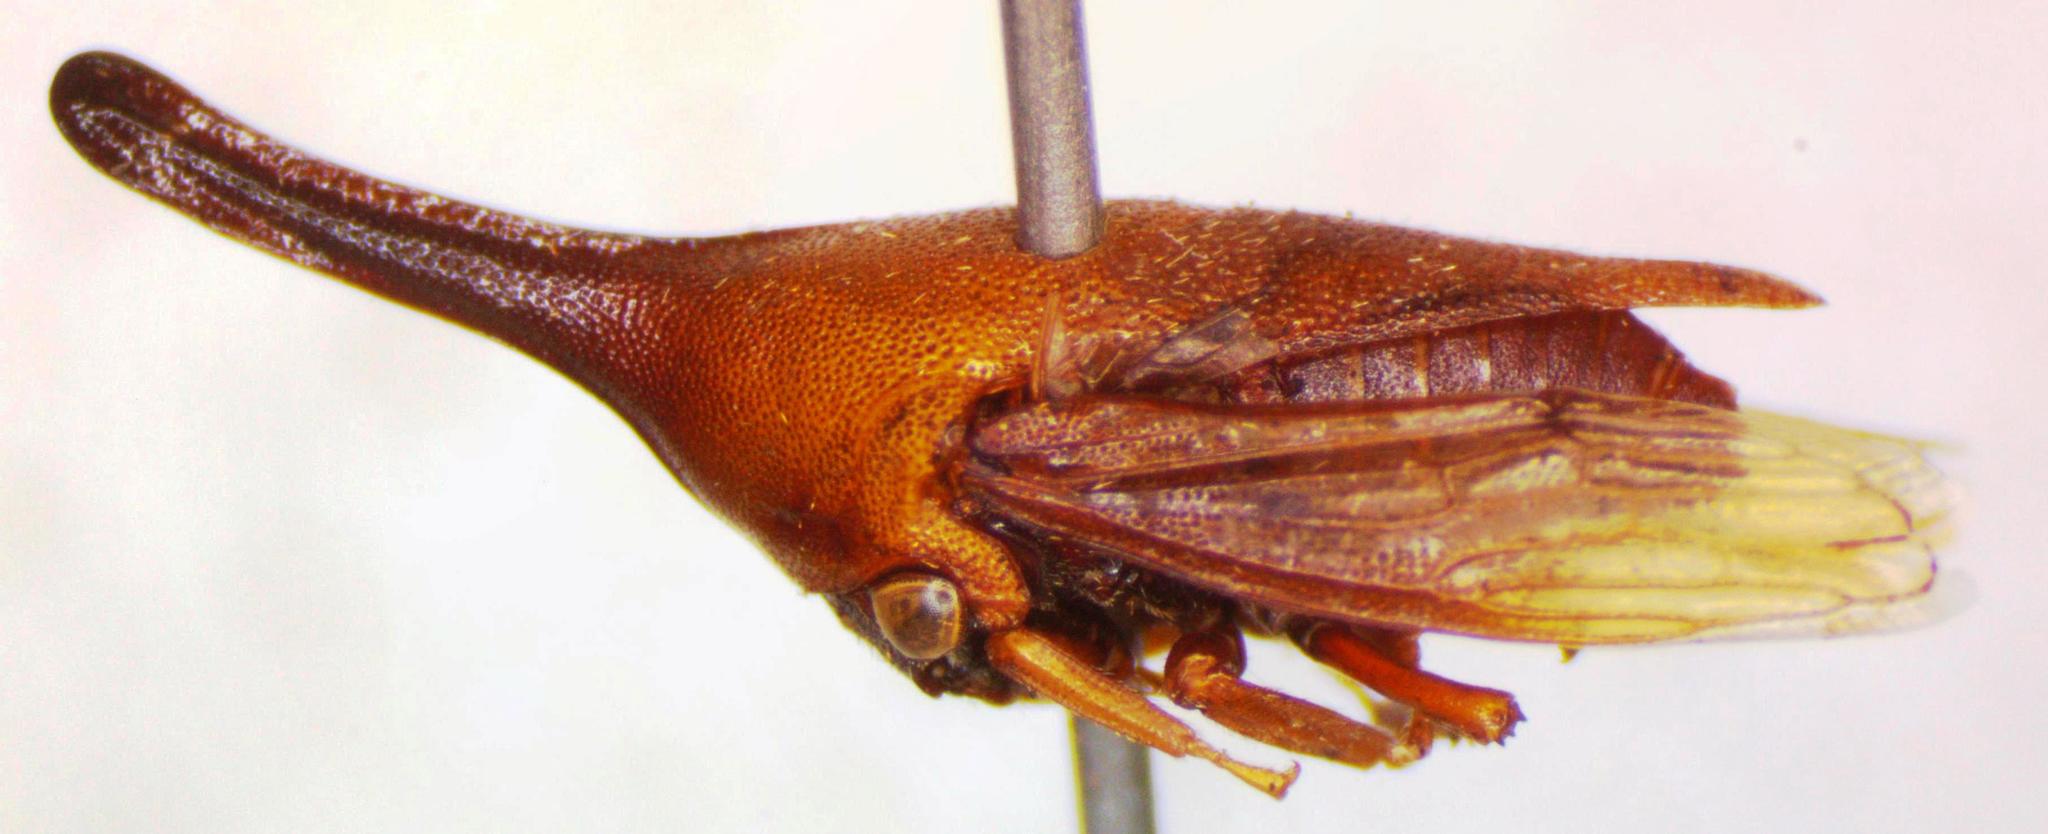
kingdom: Animalia
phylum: Arthropoda
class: Insecta
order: Hemiptera
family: Membracidae
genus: Guayaquila
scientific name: Guayaquila gracilicornis
